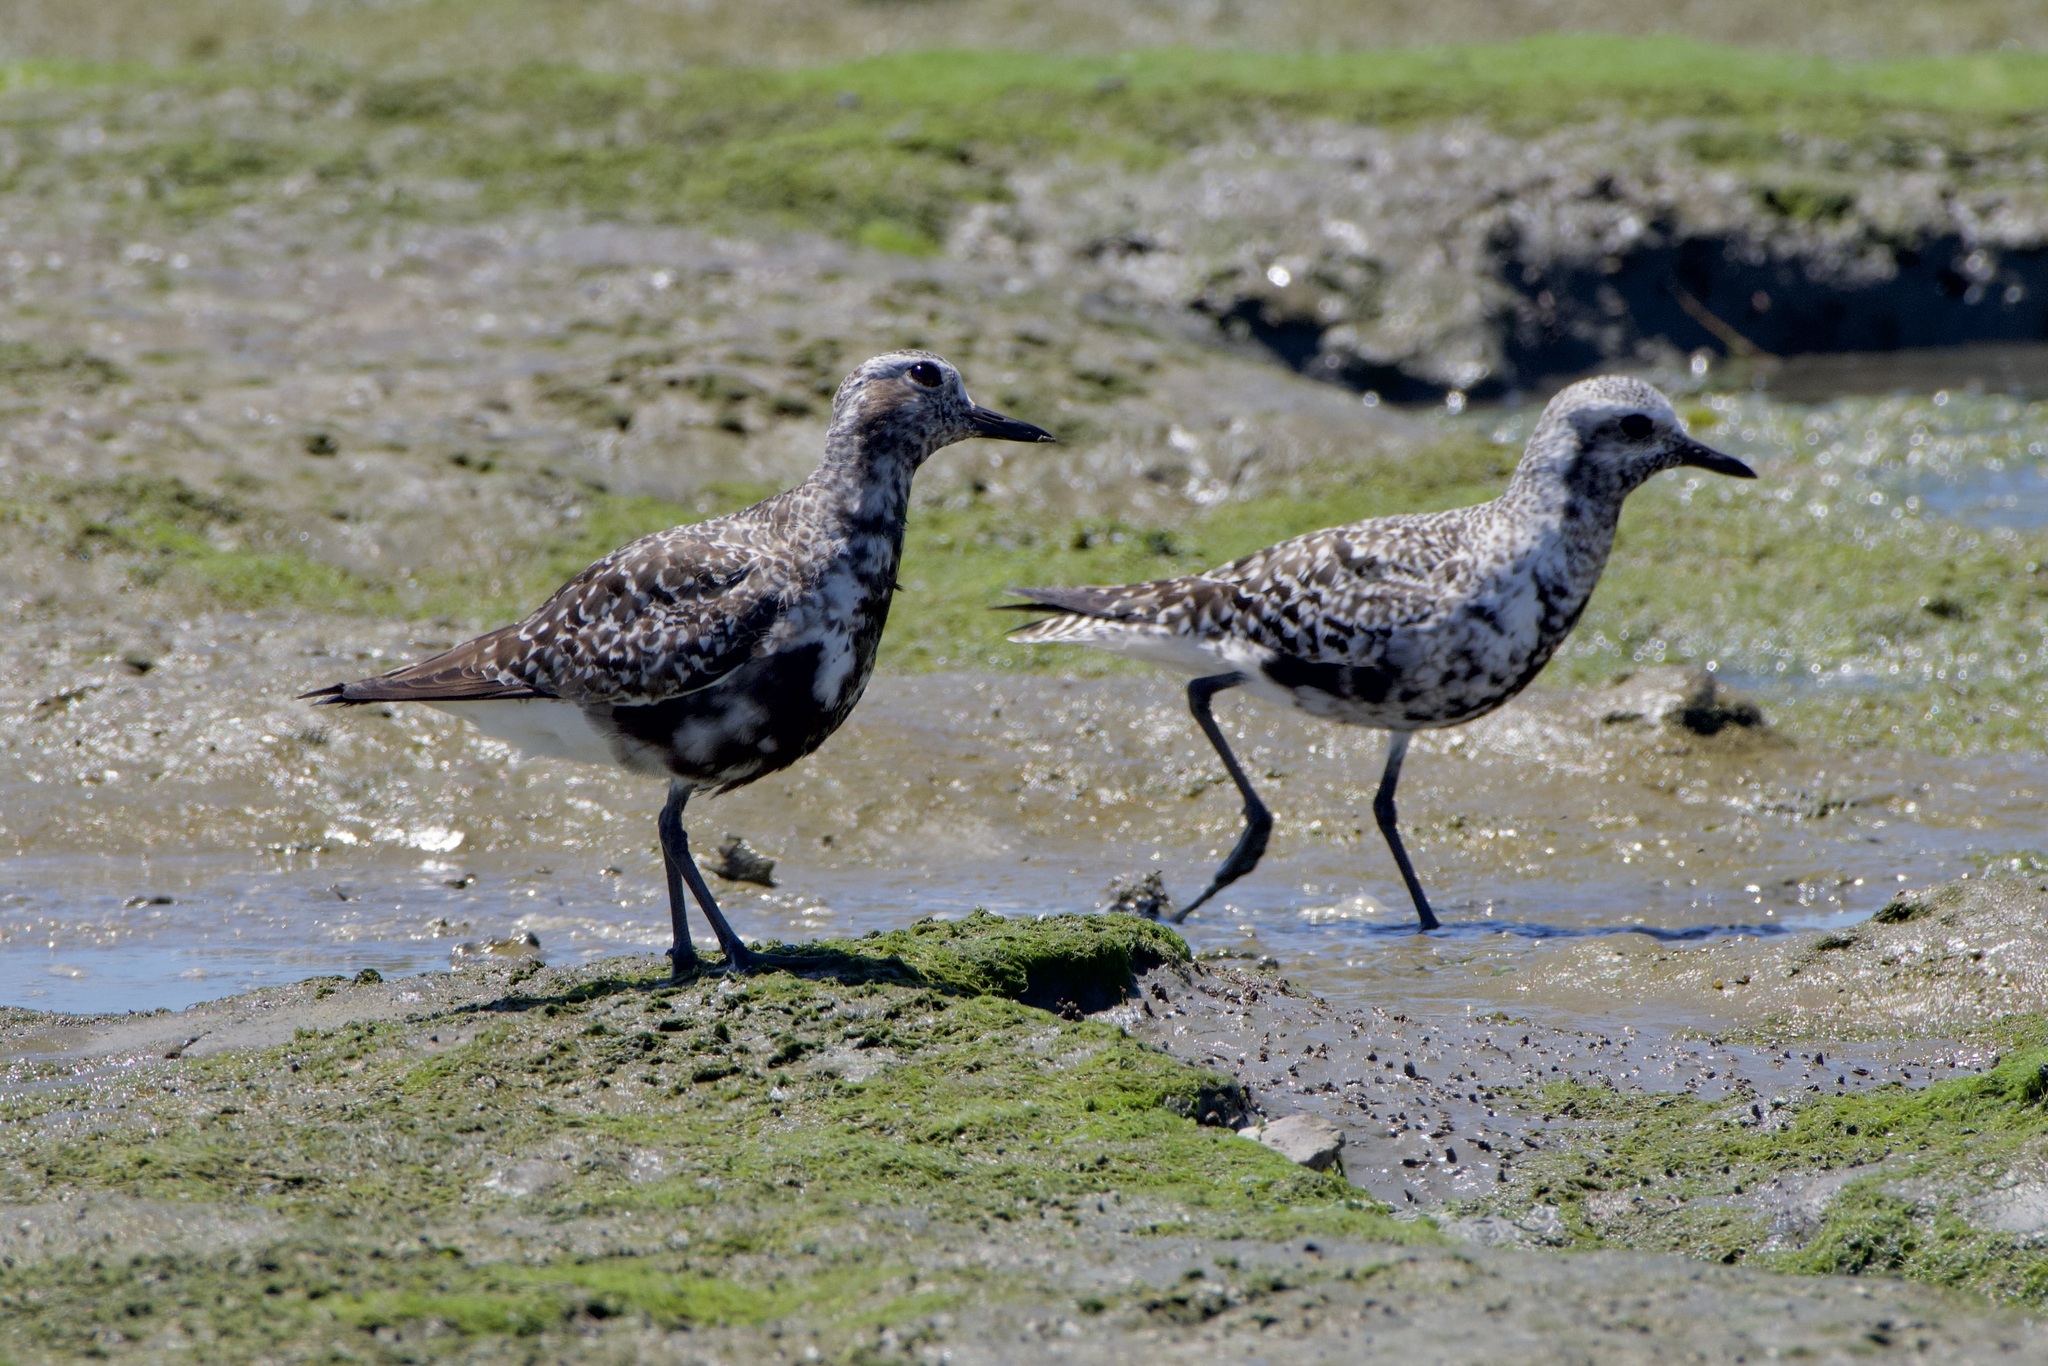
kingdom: Animalia
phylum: Chordata
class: Aves
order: Charadriiformes
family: Charadriidae
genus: Pluvialis
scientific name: Pluvialis squatarola
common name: Grey plover
